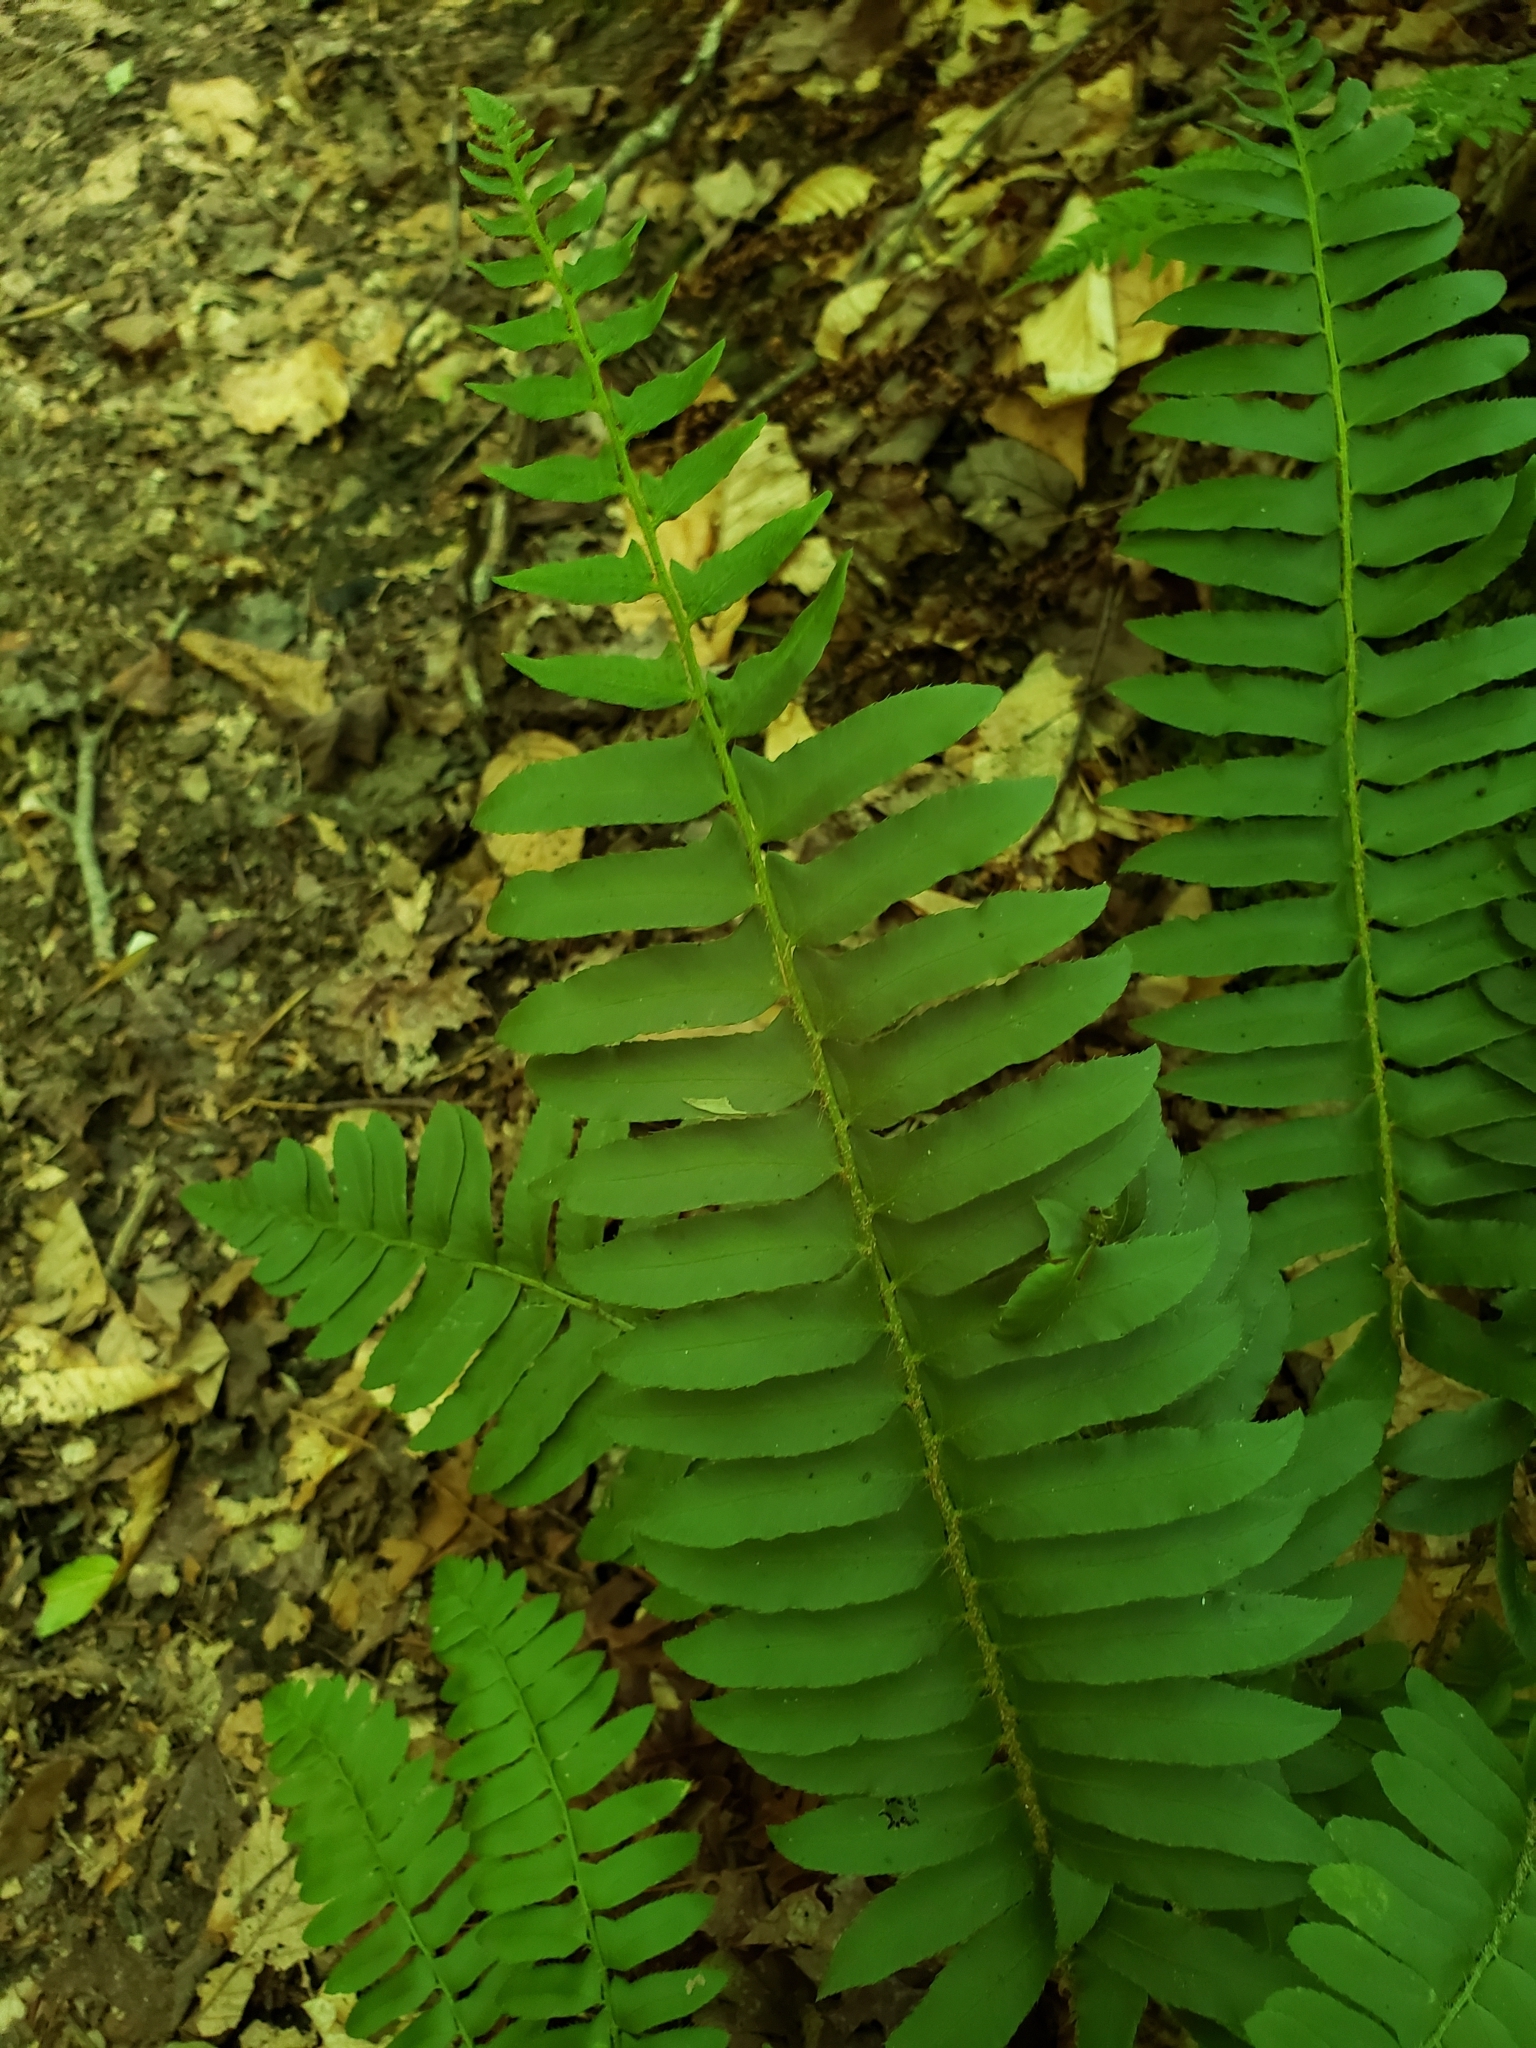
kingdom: Plantae
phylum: Tracheophyta
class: Polypodiopsida
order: Polypodiales
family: Dryopteridaceae
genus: Polystichum
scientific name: Polystichum acrostichoides
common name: Christmas fern
